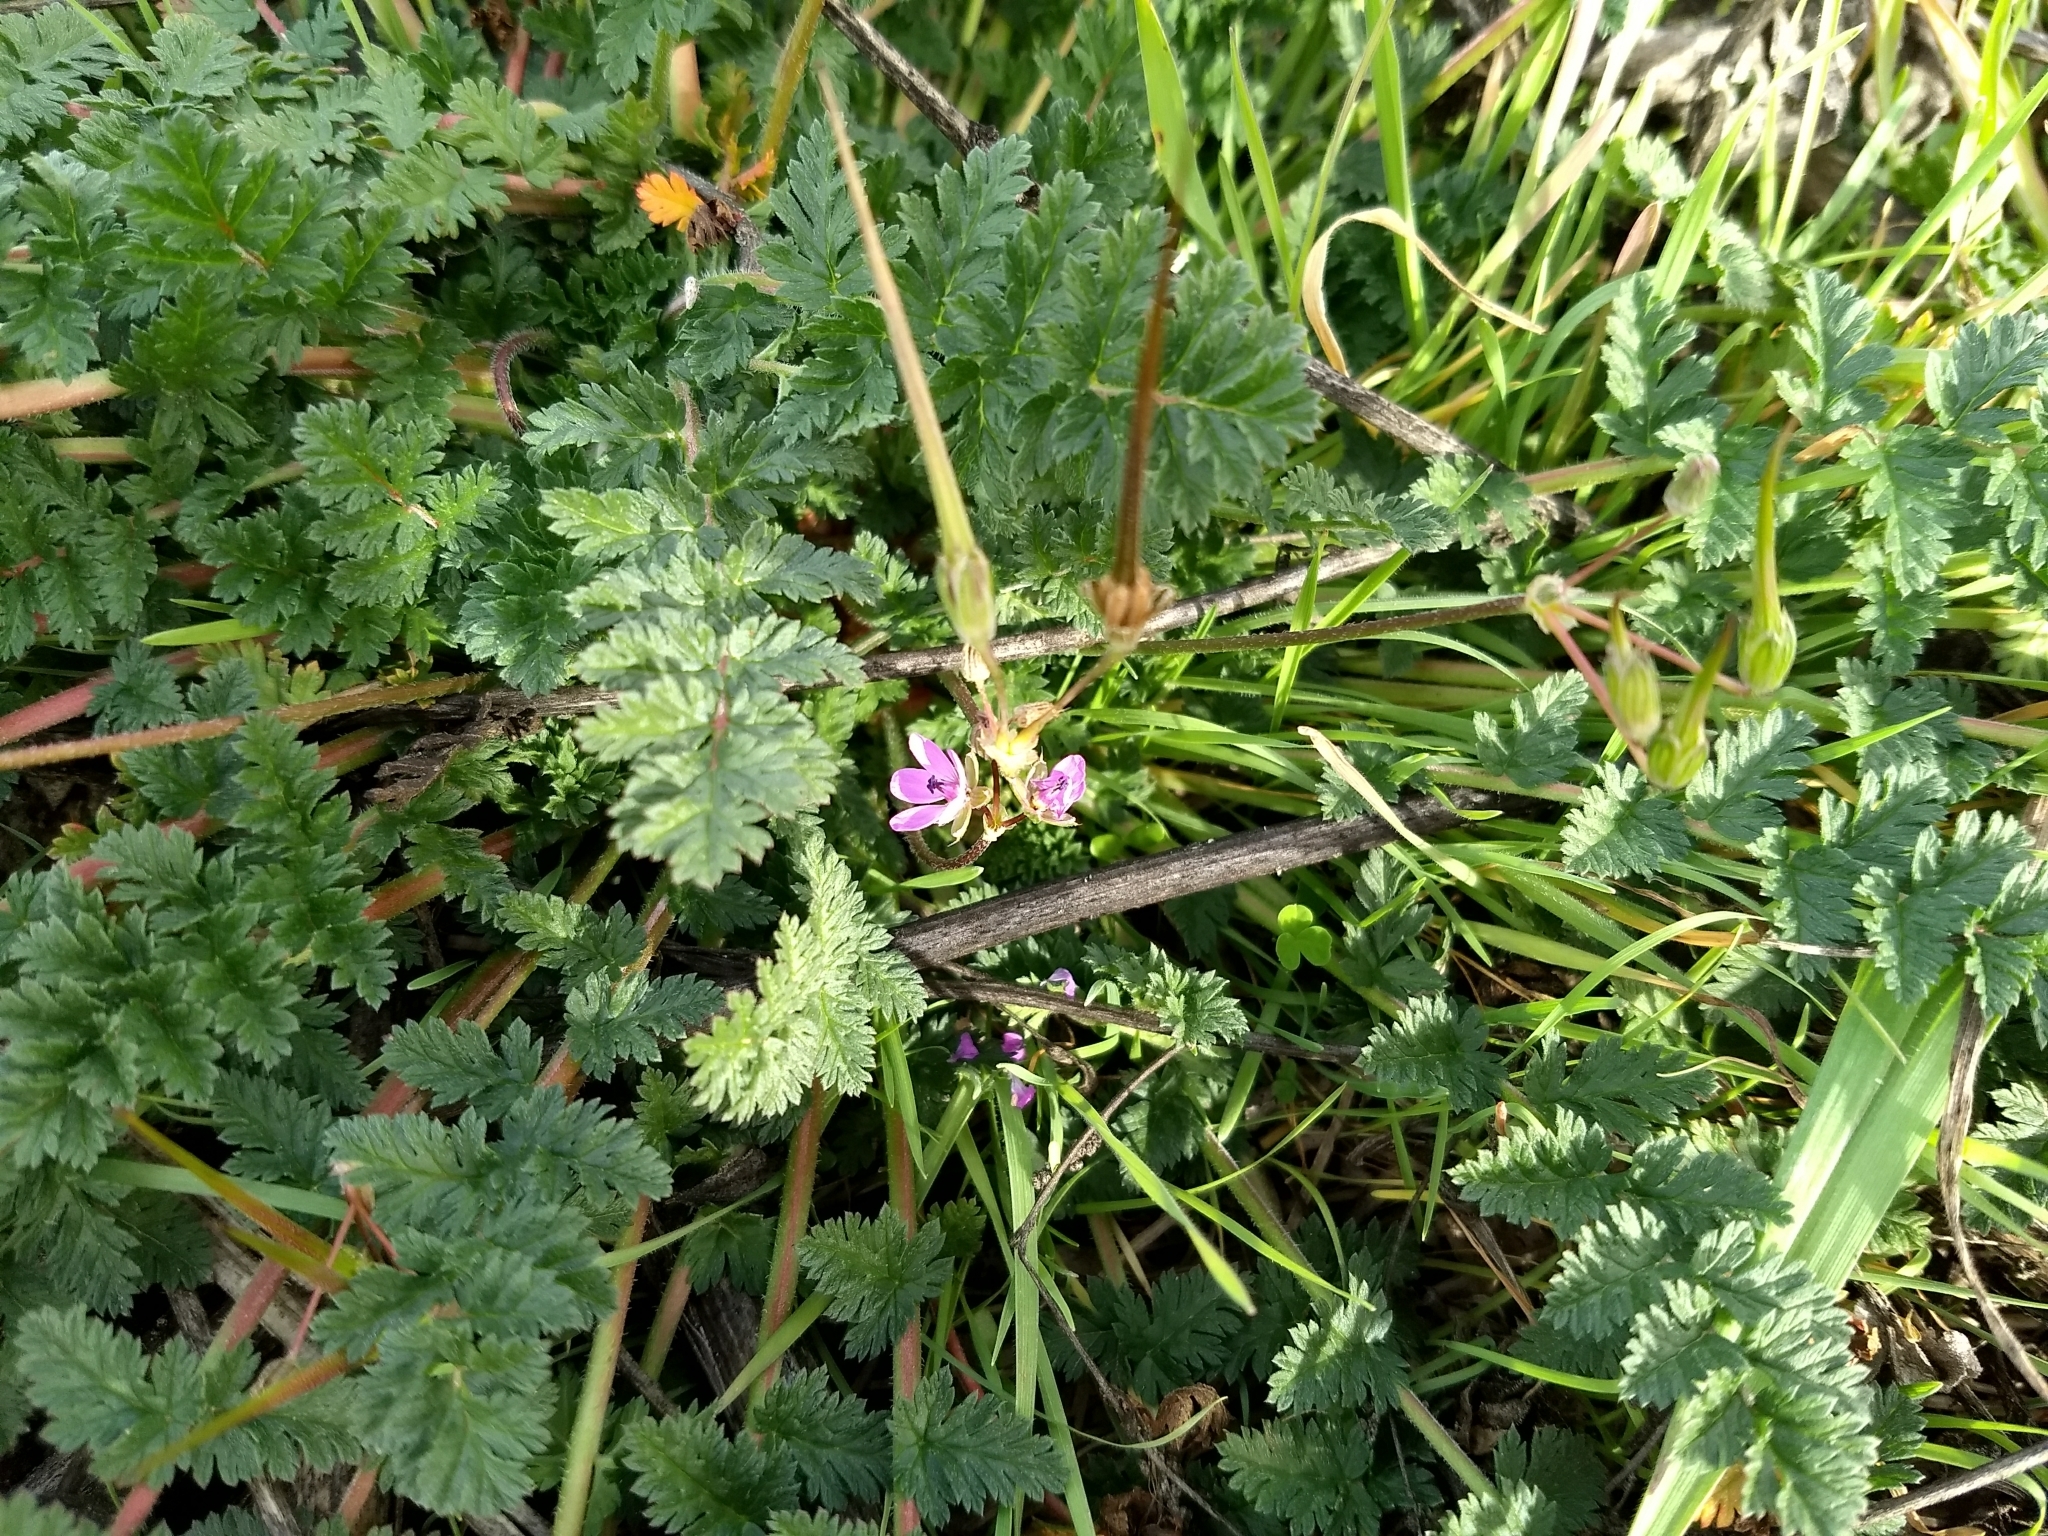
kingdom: Plantae
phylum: Tracheophyta
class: Magnoliopsida
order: Geraniales
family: Geraniaceae
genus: Erodium
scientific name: Erodium cicutarium
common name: Common stork's-bill
